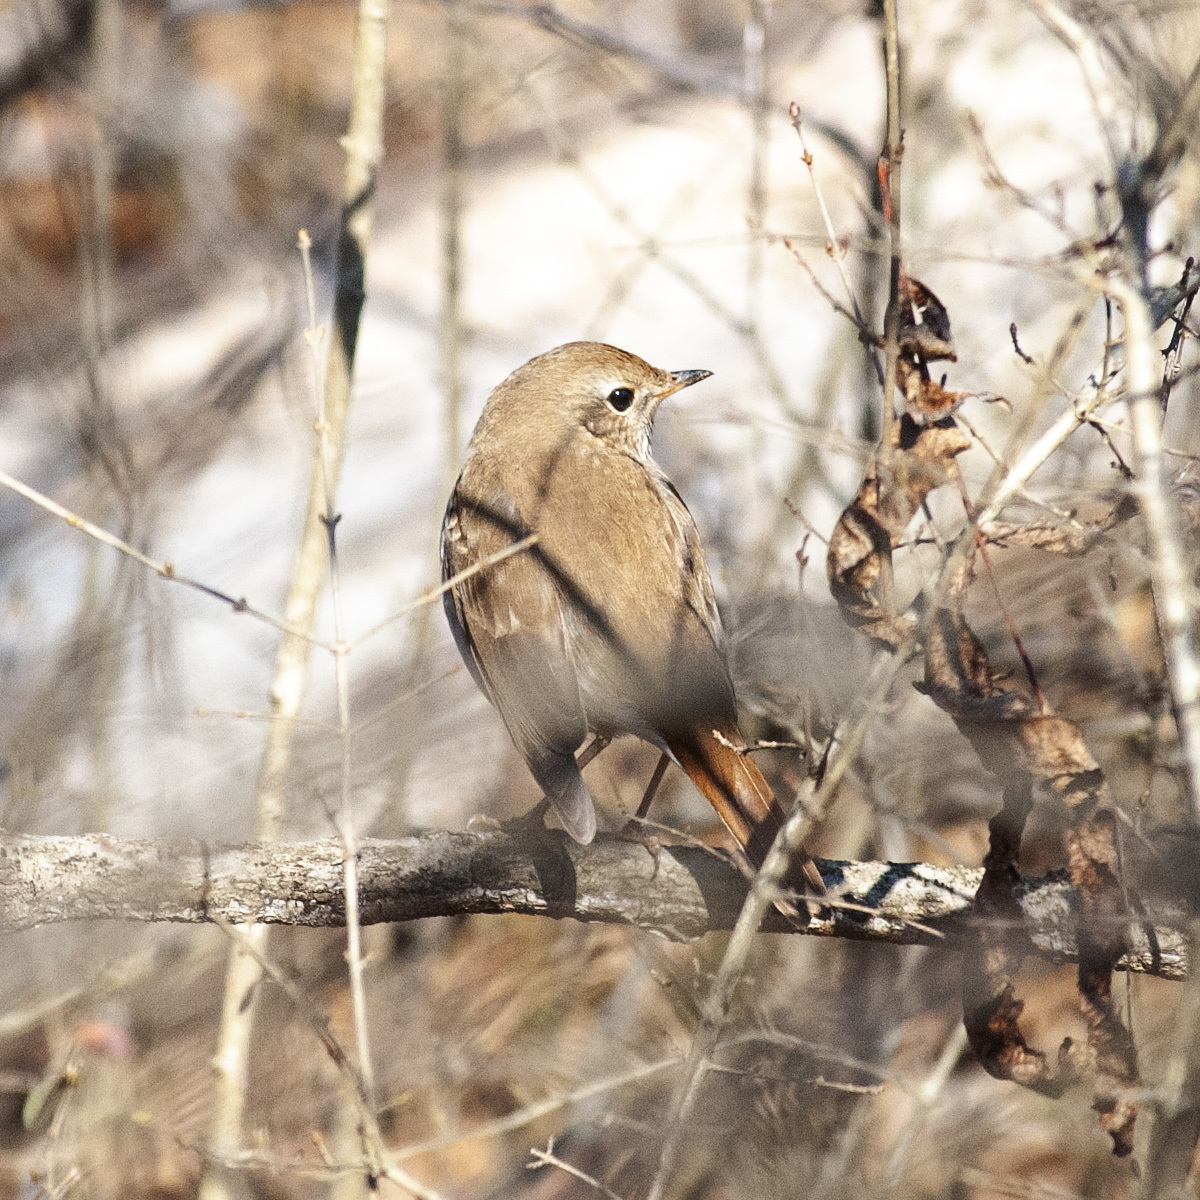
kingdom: Animalia
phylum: Chordata
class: Aves
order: Passeriformes
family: Turdidae
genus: Catharus
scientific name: Catharus guttatus
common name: Hermit thrush
